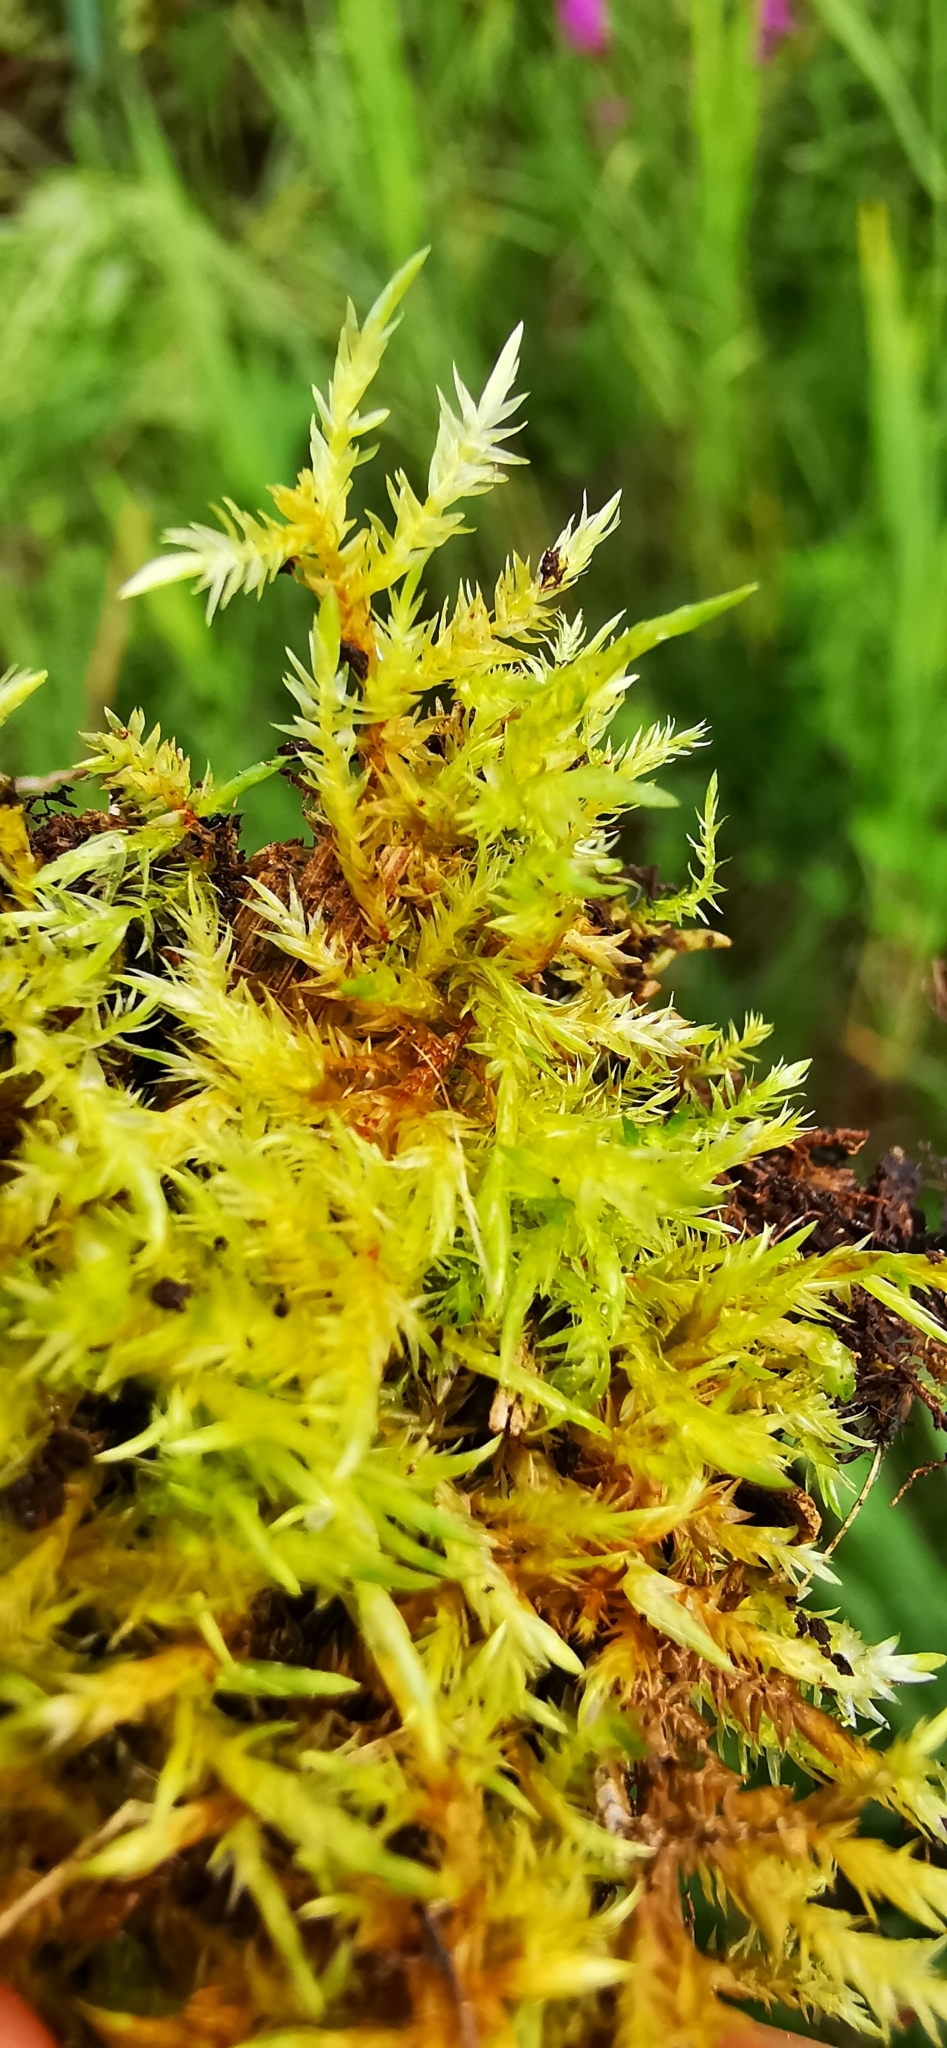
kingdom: Plantae
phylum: Bryophyta
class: Bryopsida
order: Hypnales
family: Pylaisiaceae
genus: Calliergonella
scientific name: Calliergonella cuspidata
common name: Common large wetland moss
